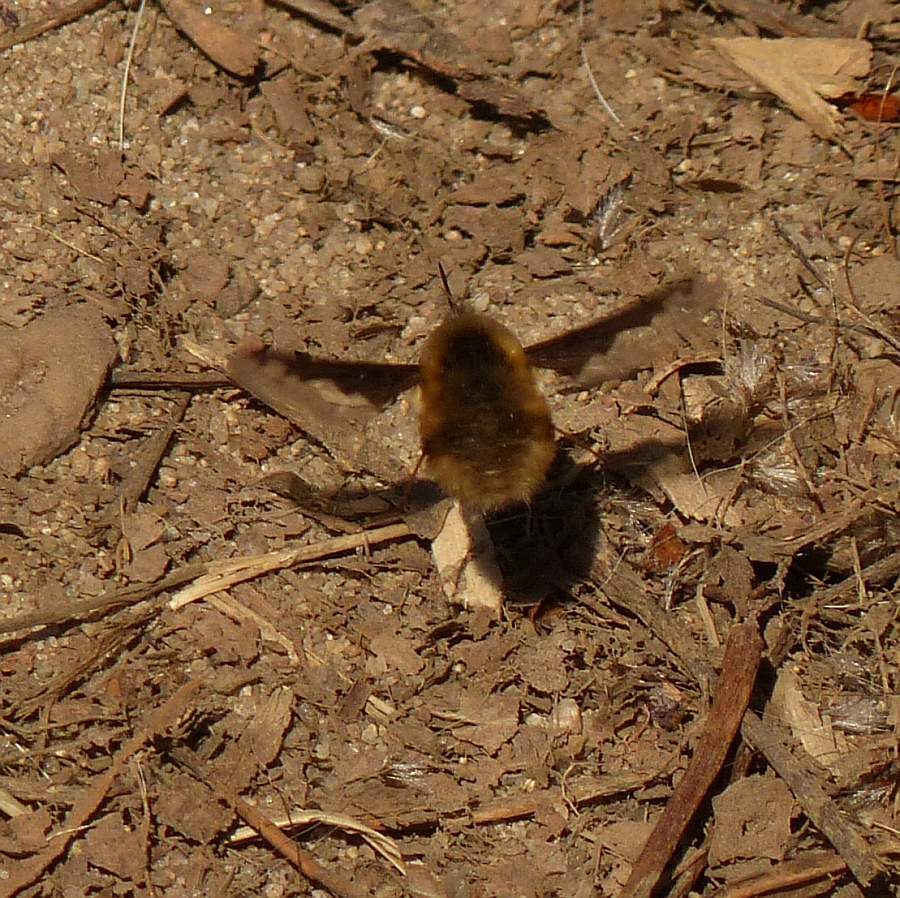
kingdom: Animalia
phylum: Arthropoda
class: Insecta
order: Diptera
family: Bombyliidae
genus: Bombylius
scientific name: Bombylius major
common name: Bee fly
